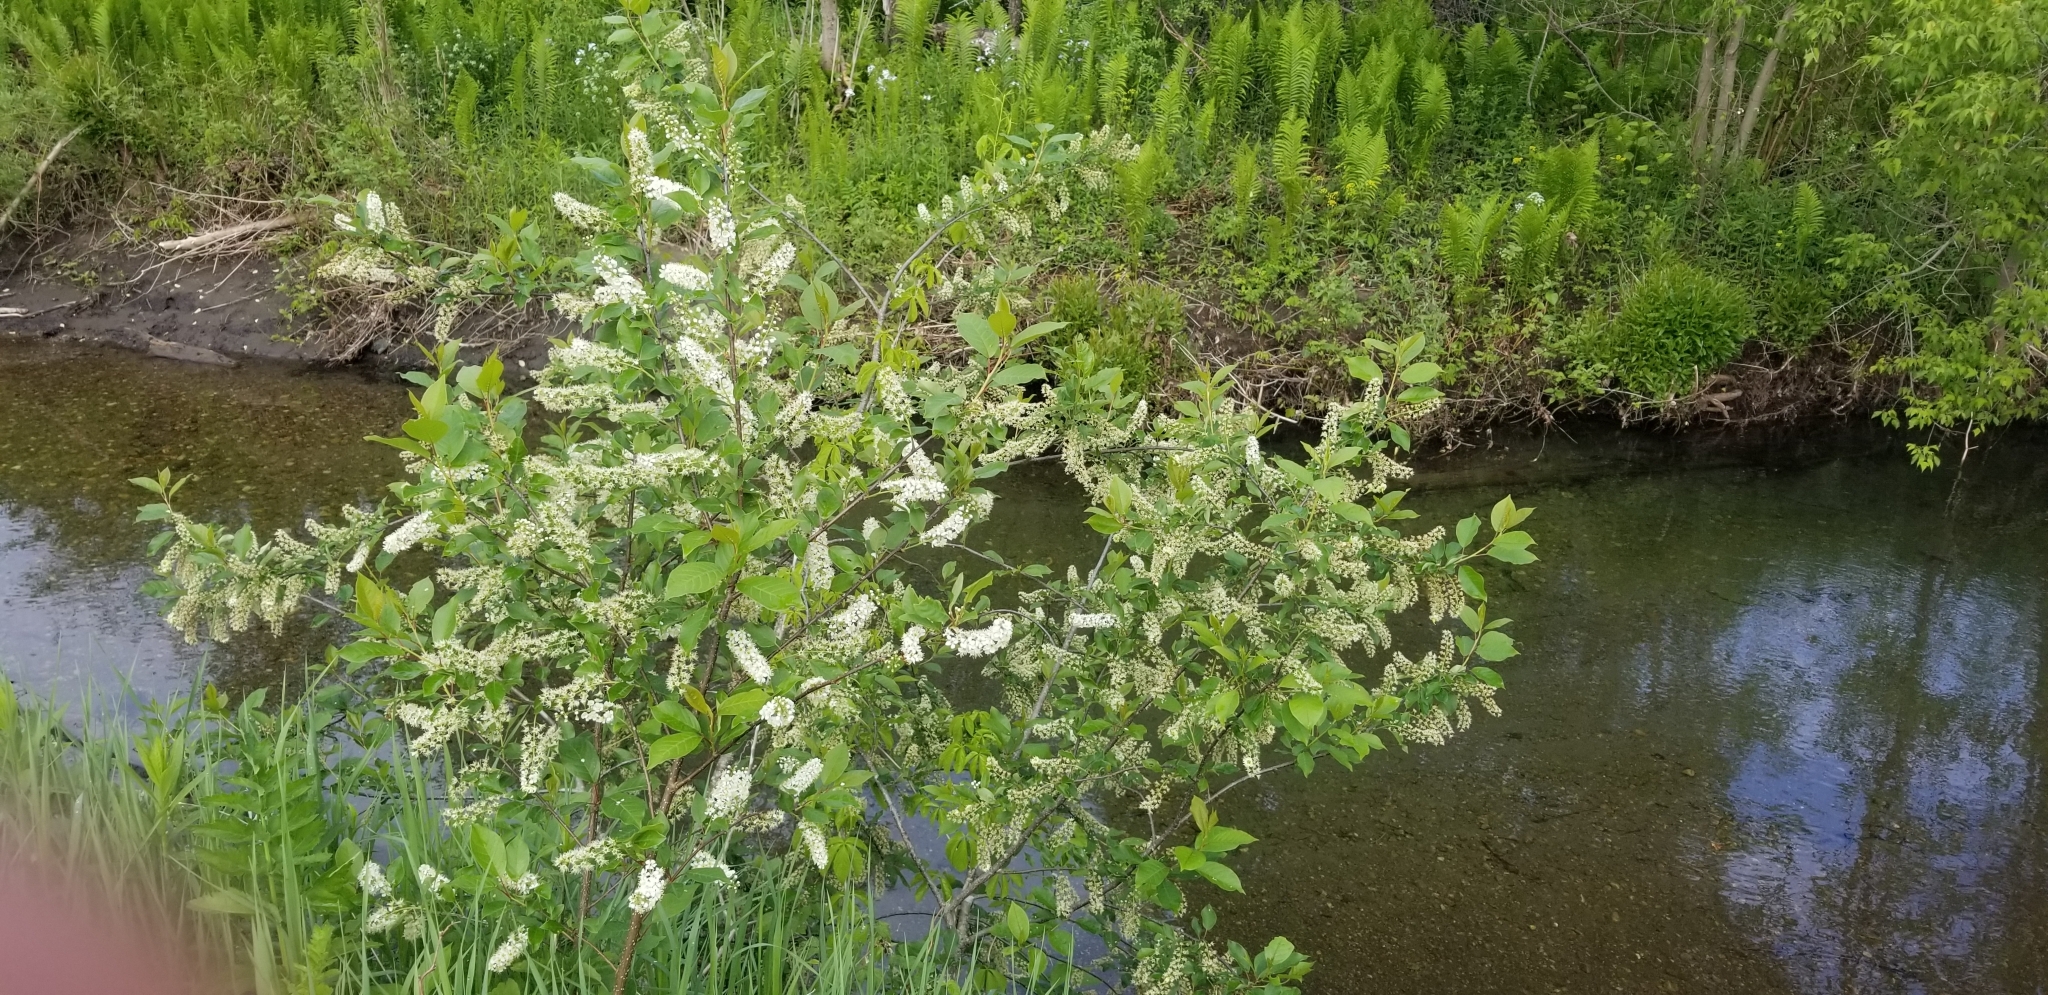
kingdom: Plantae
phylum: Tracheophyta
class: Magnoliopsida
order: Rosales
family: Rosaceae
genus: Prunus
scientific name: Prunus virginiana
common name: Chokecherry
